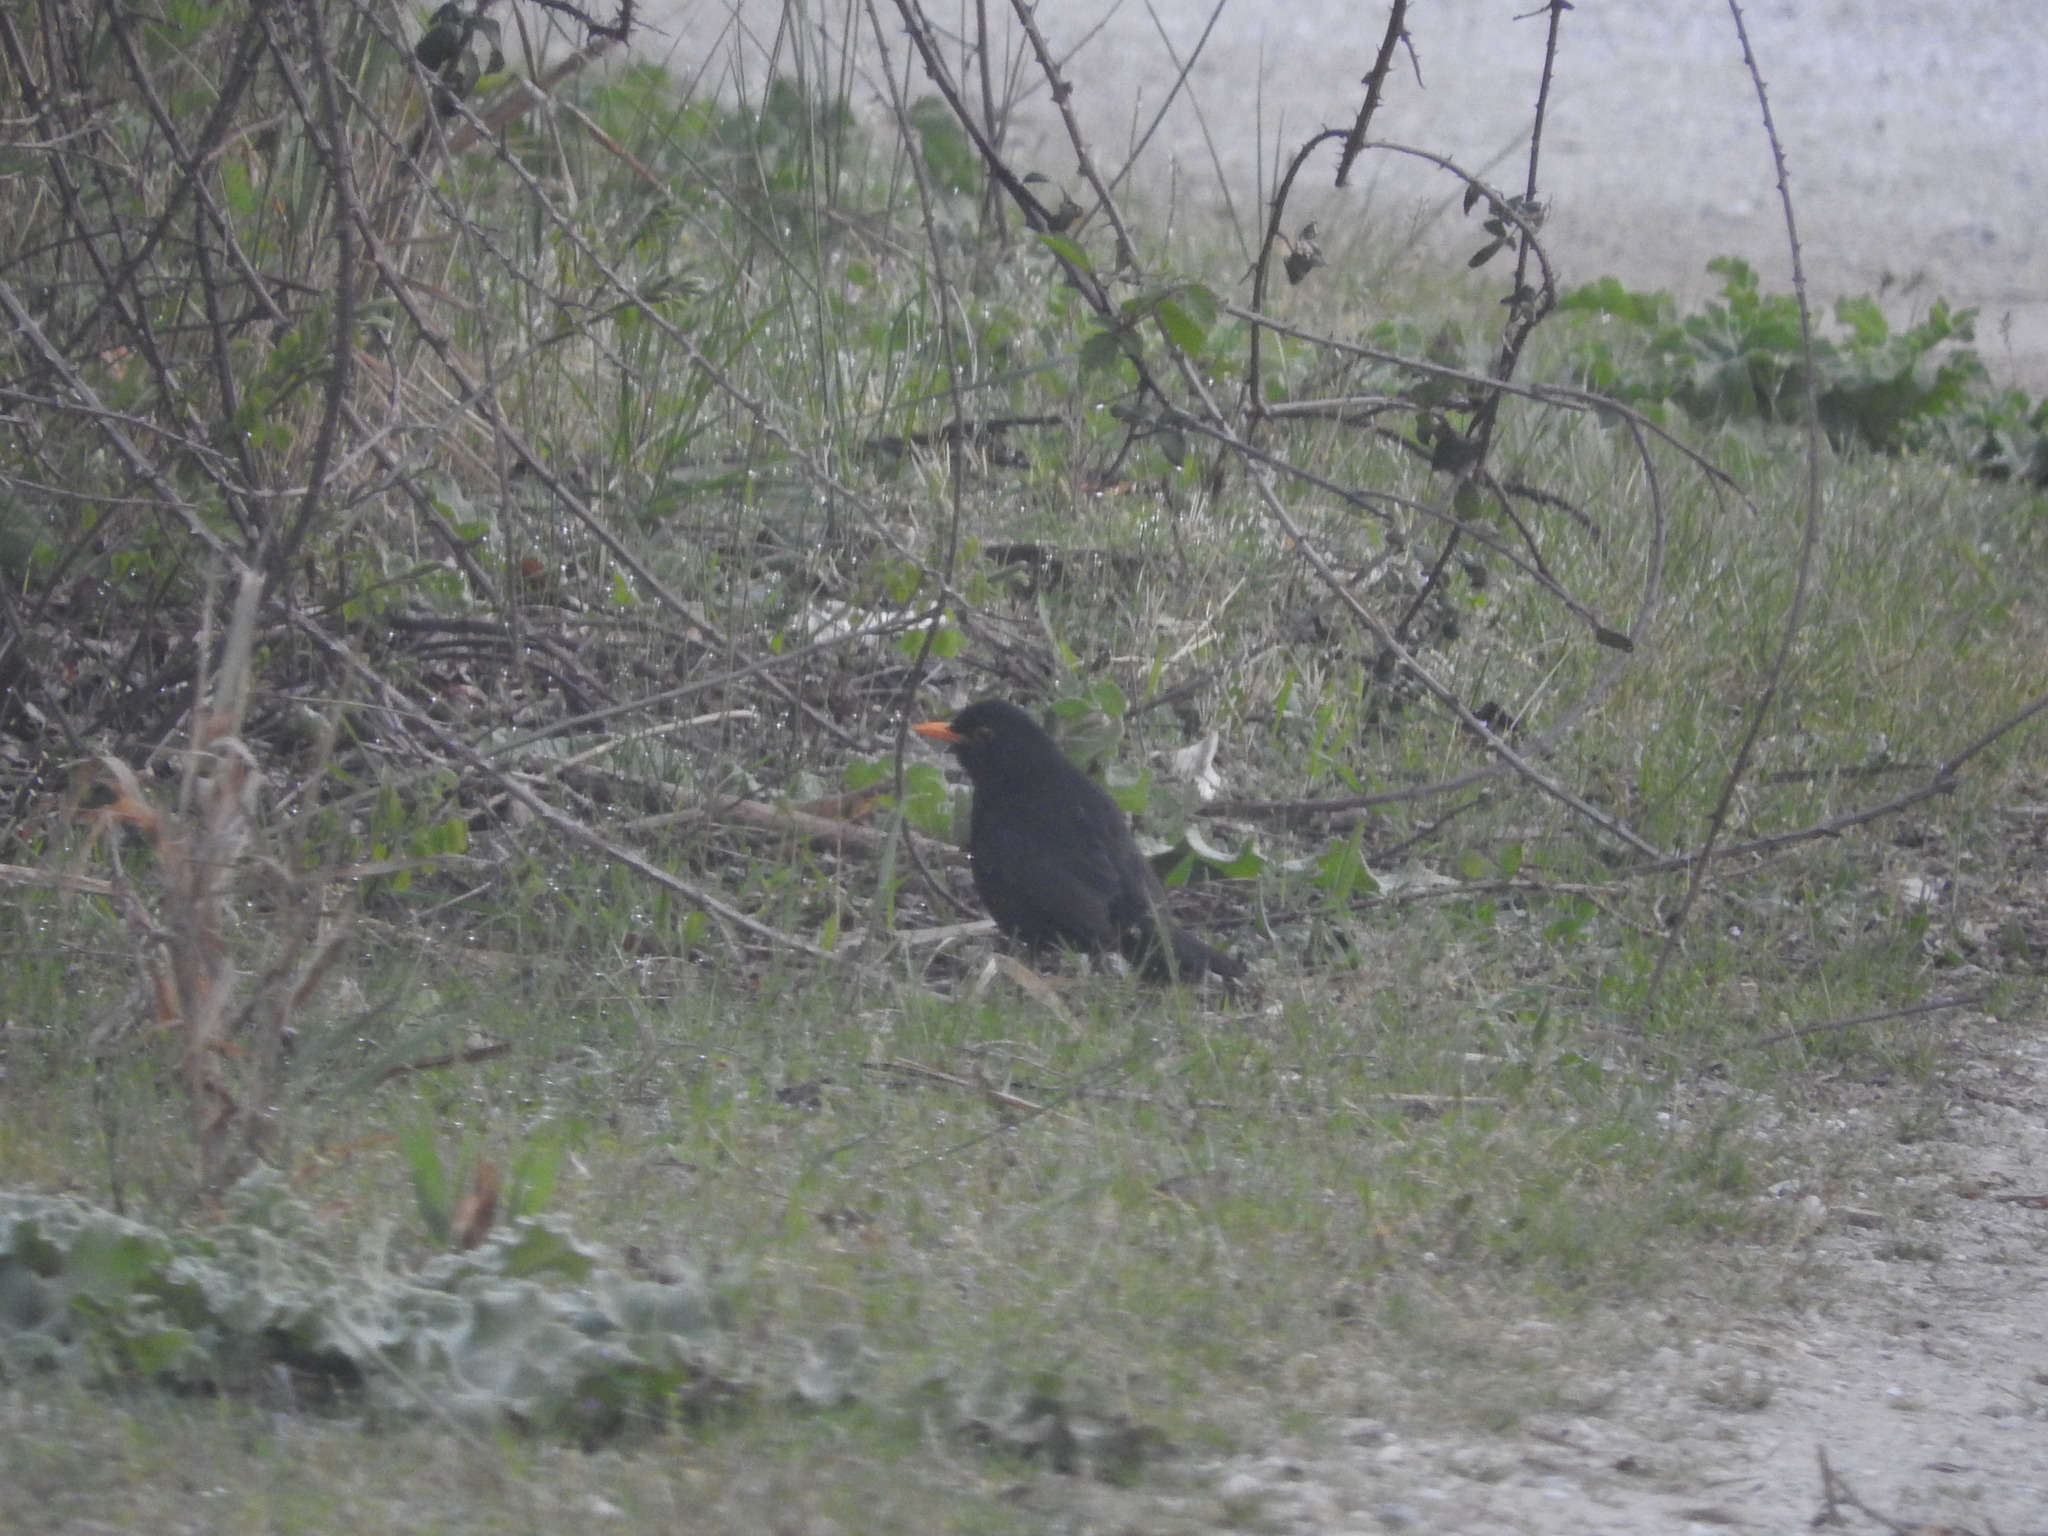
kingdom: Animalia
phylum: Chordata
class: Aves
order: Passeriformes
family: Turdidae
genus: Turdus
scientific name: Turdus merula
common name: Common blackbird
